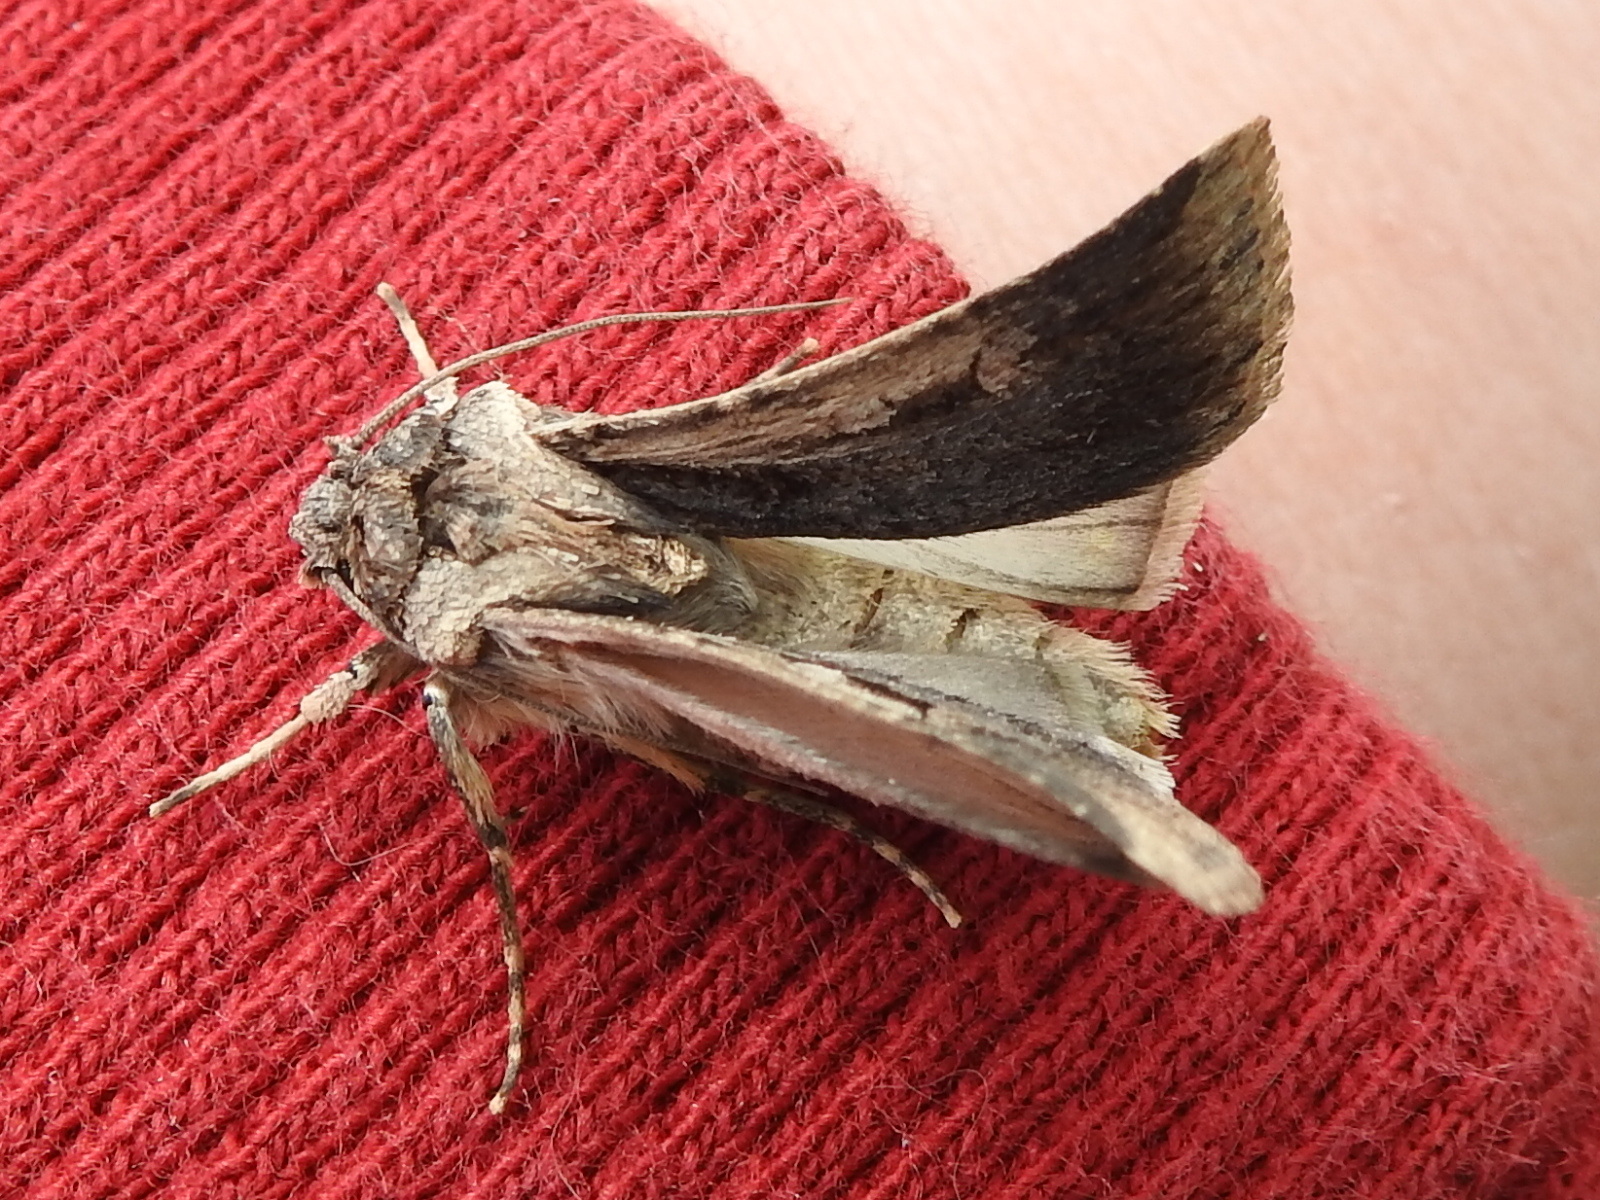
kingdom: Animalia
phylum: Arthropoda
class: Insecta
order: Lepidoptera
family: Noctuidae
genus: Feltia
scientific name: Feltia subterranea
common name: Granulate cutworm
